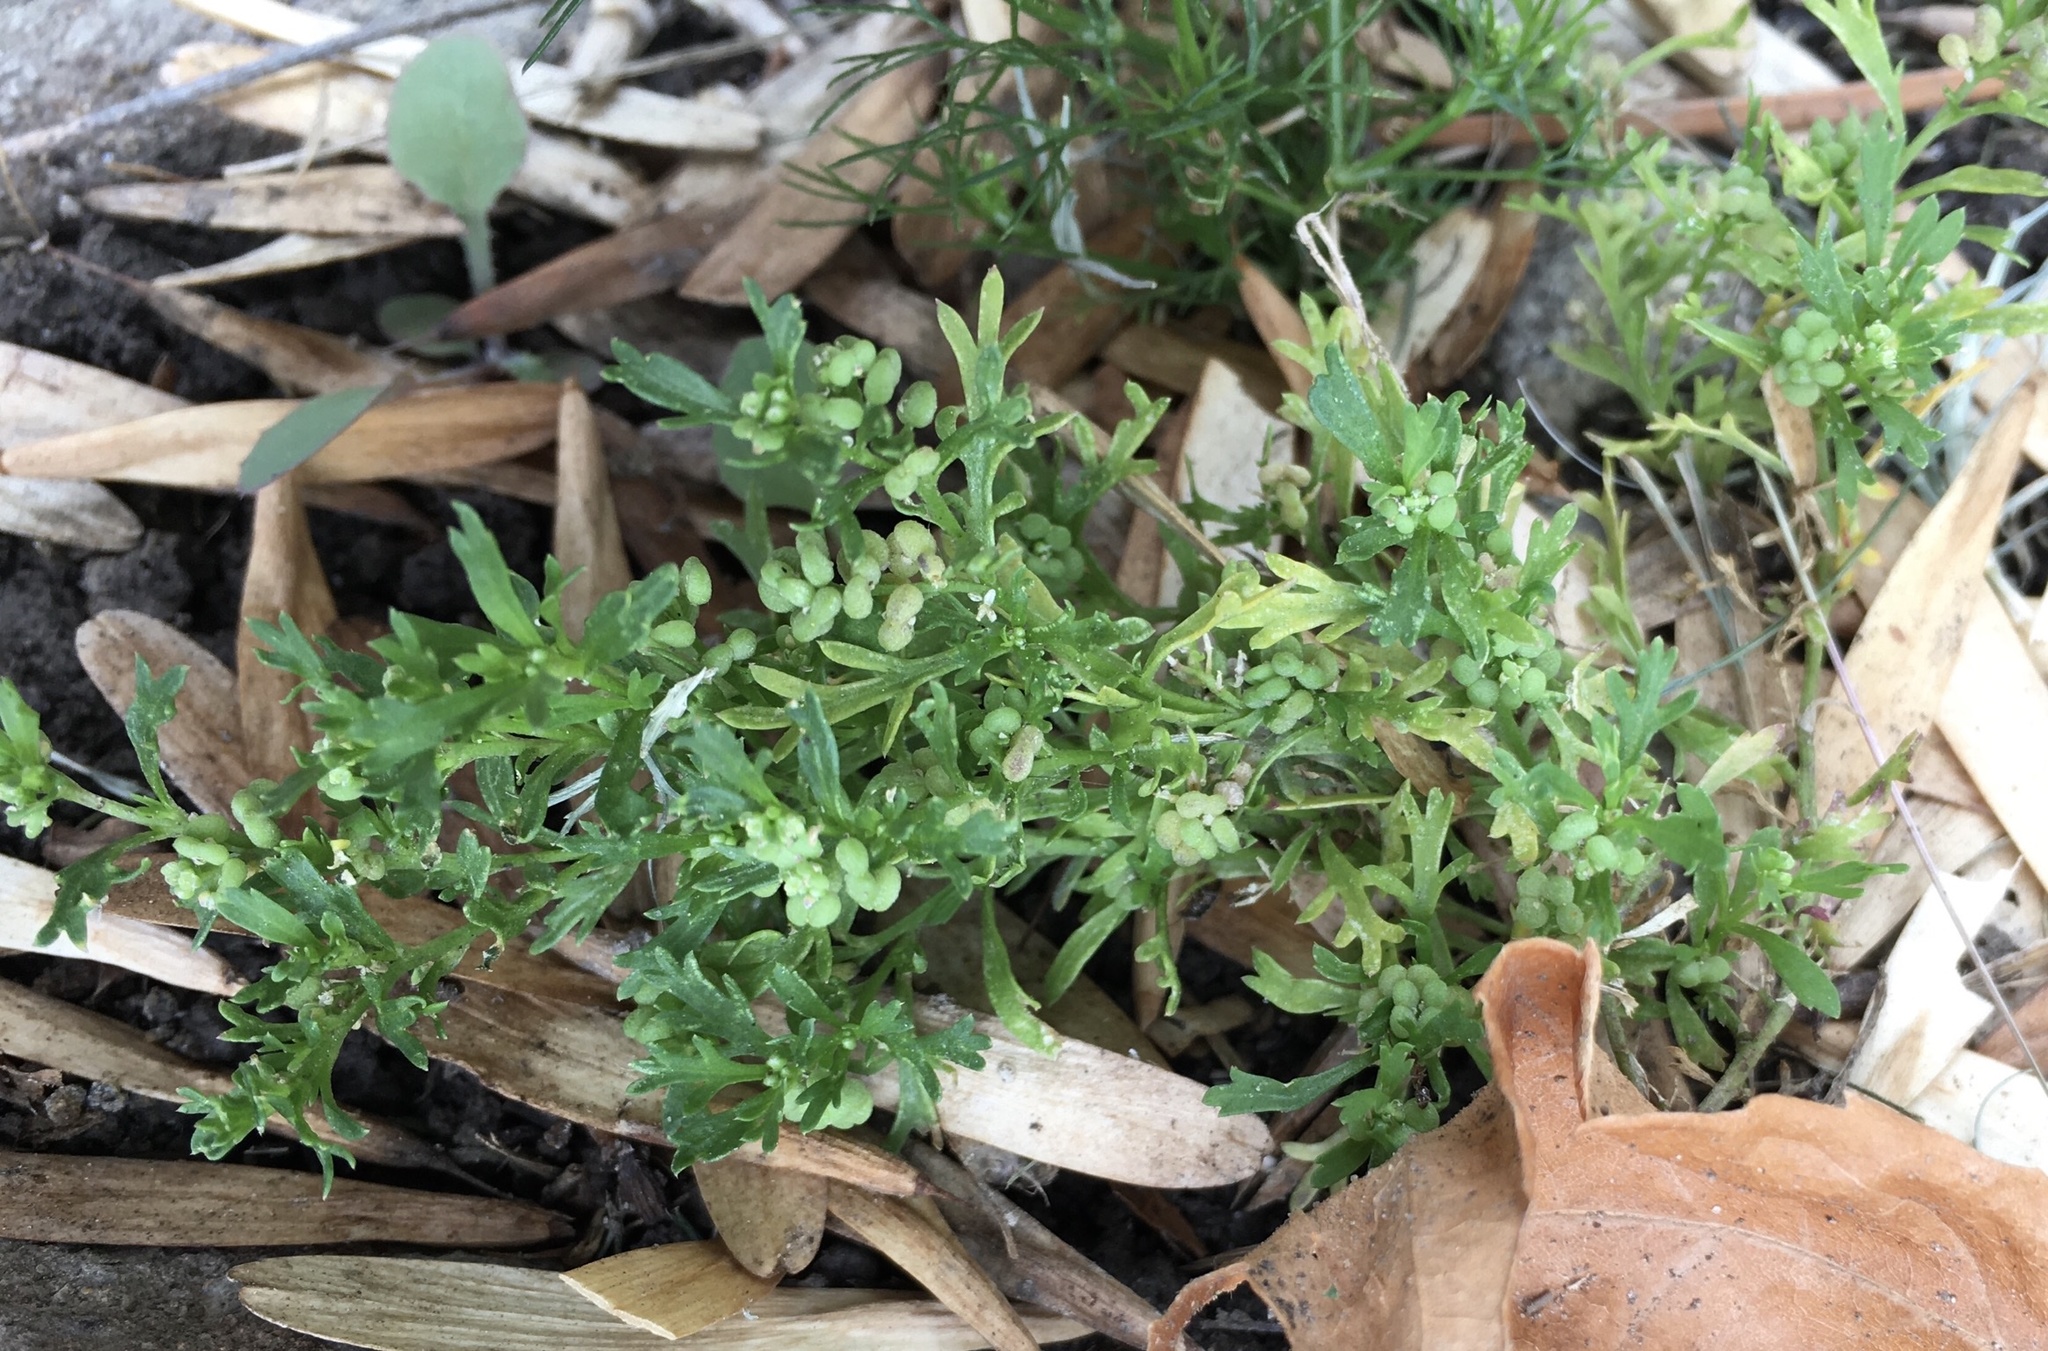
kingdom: Plantae
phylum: Tracheophyta
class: Magnoliopsida
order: Brassicales
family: Brassicaceae
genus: Lepidium
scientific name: Lepidium didymum
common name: Lesser swinecress
